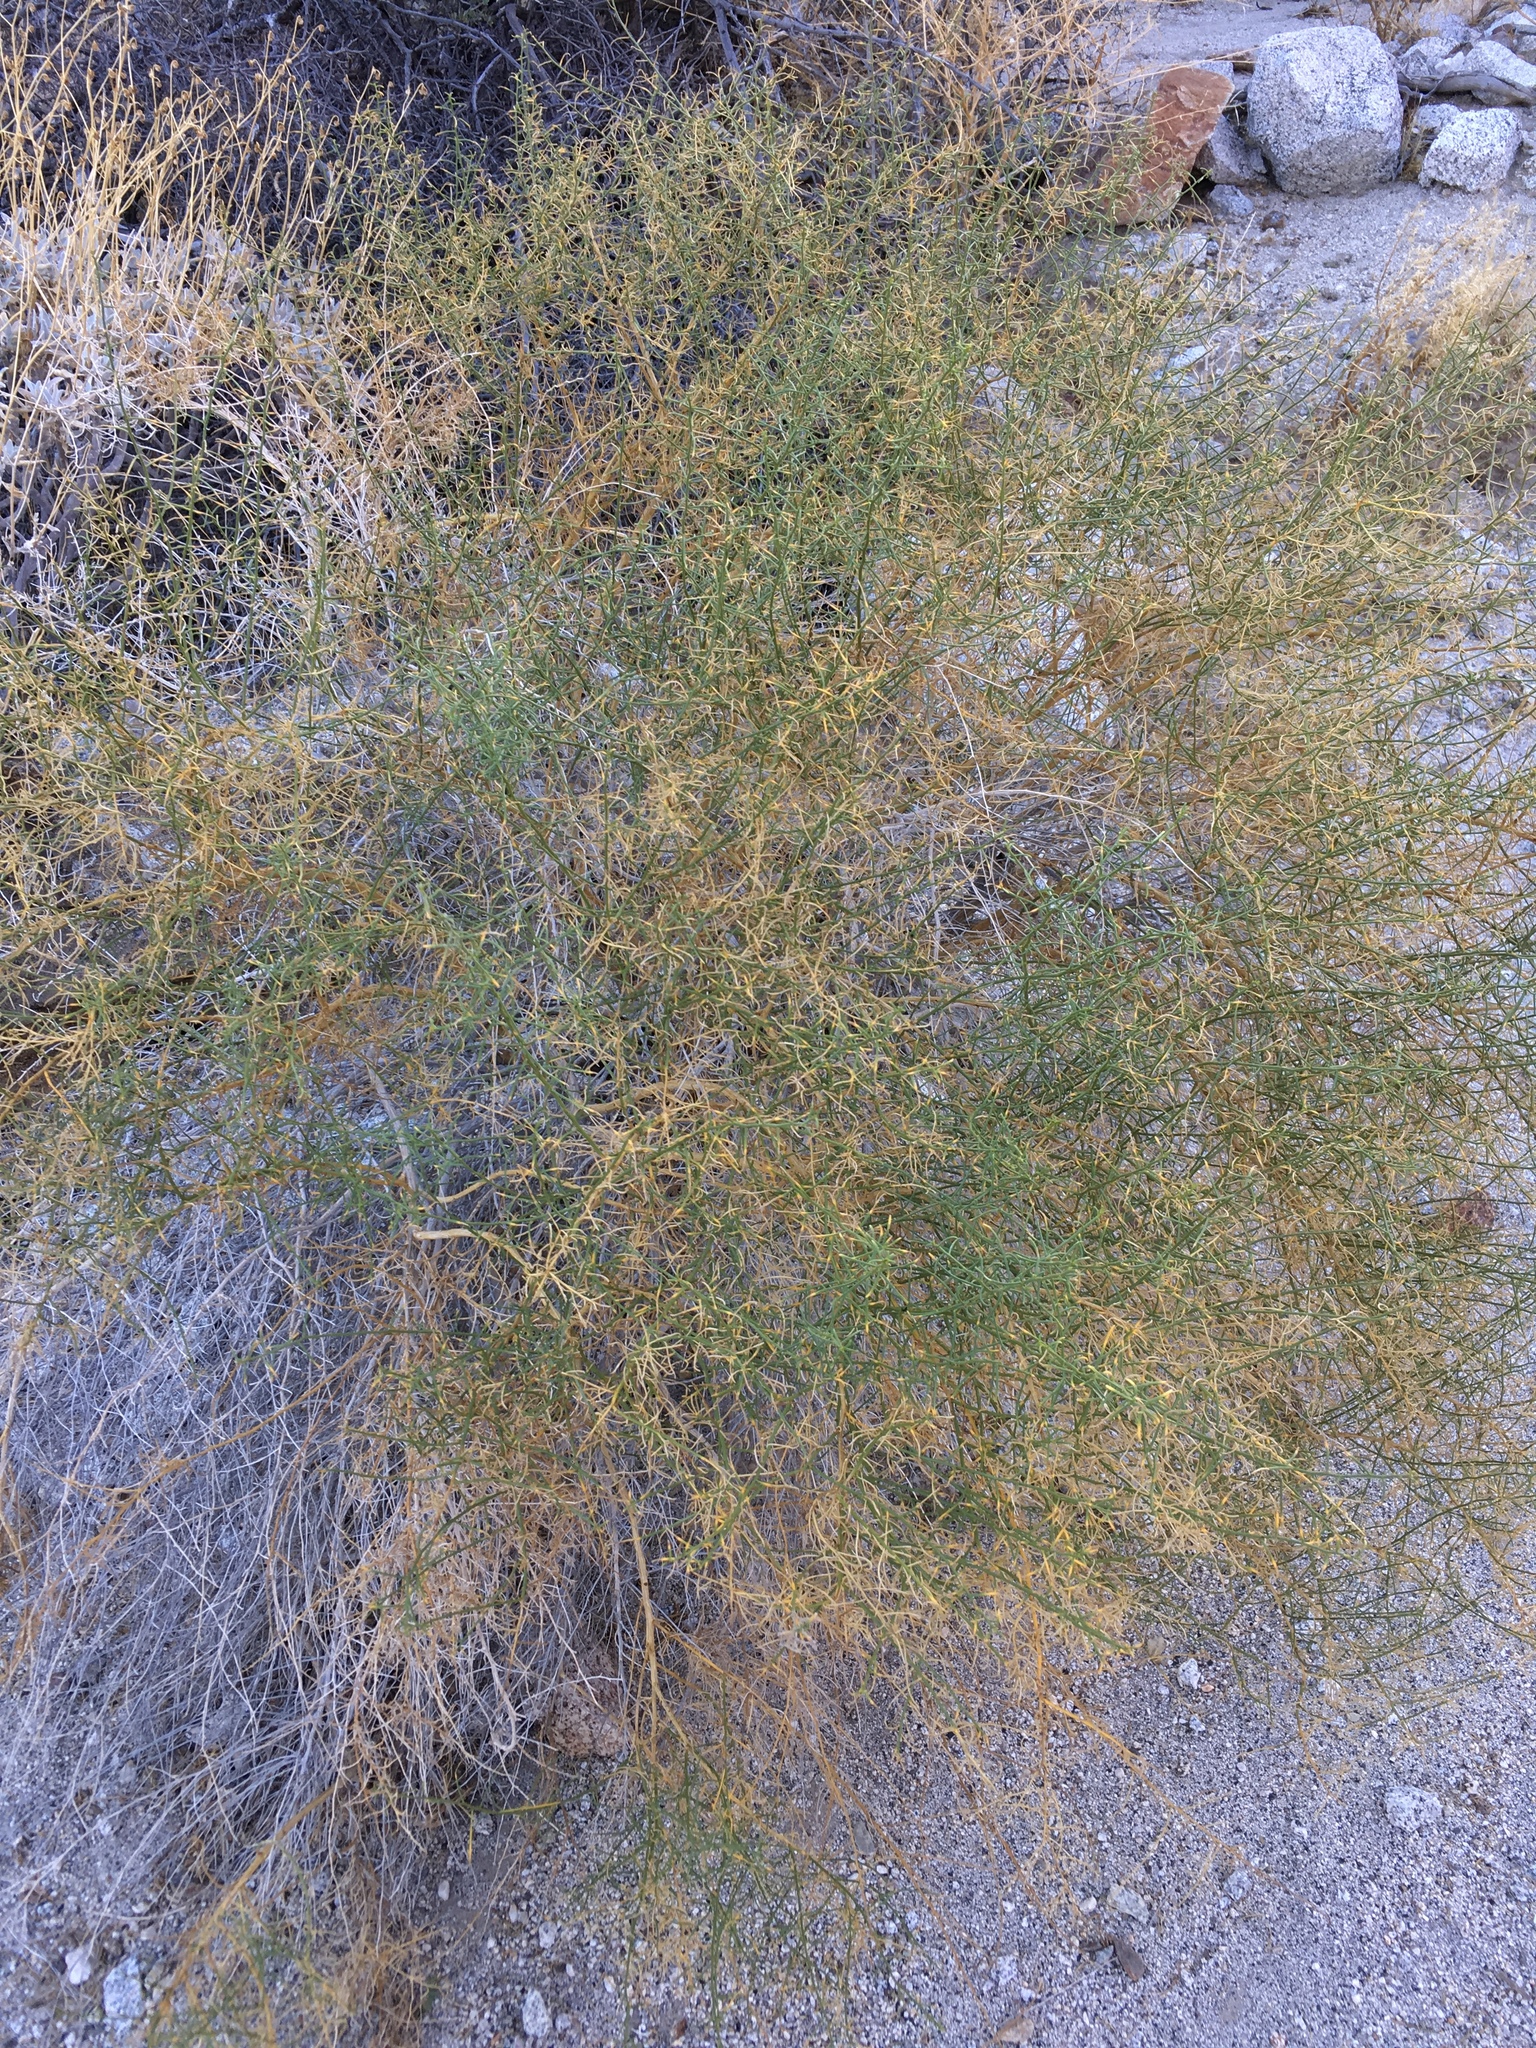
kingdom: Plantae
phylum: Tracheophyta
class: Magnoliopsida
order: Asterales
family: Asteraceae
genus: Ambrosia
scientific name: Ambrosia salsola
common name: Burrobrush
